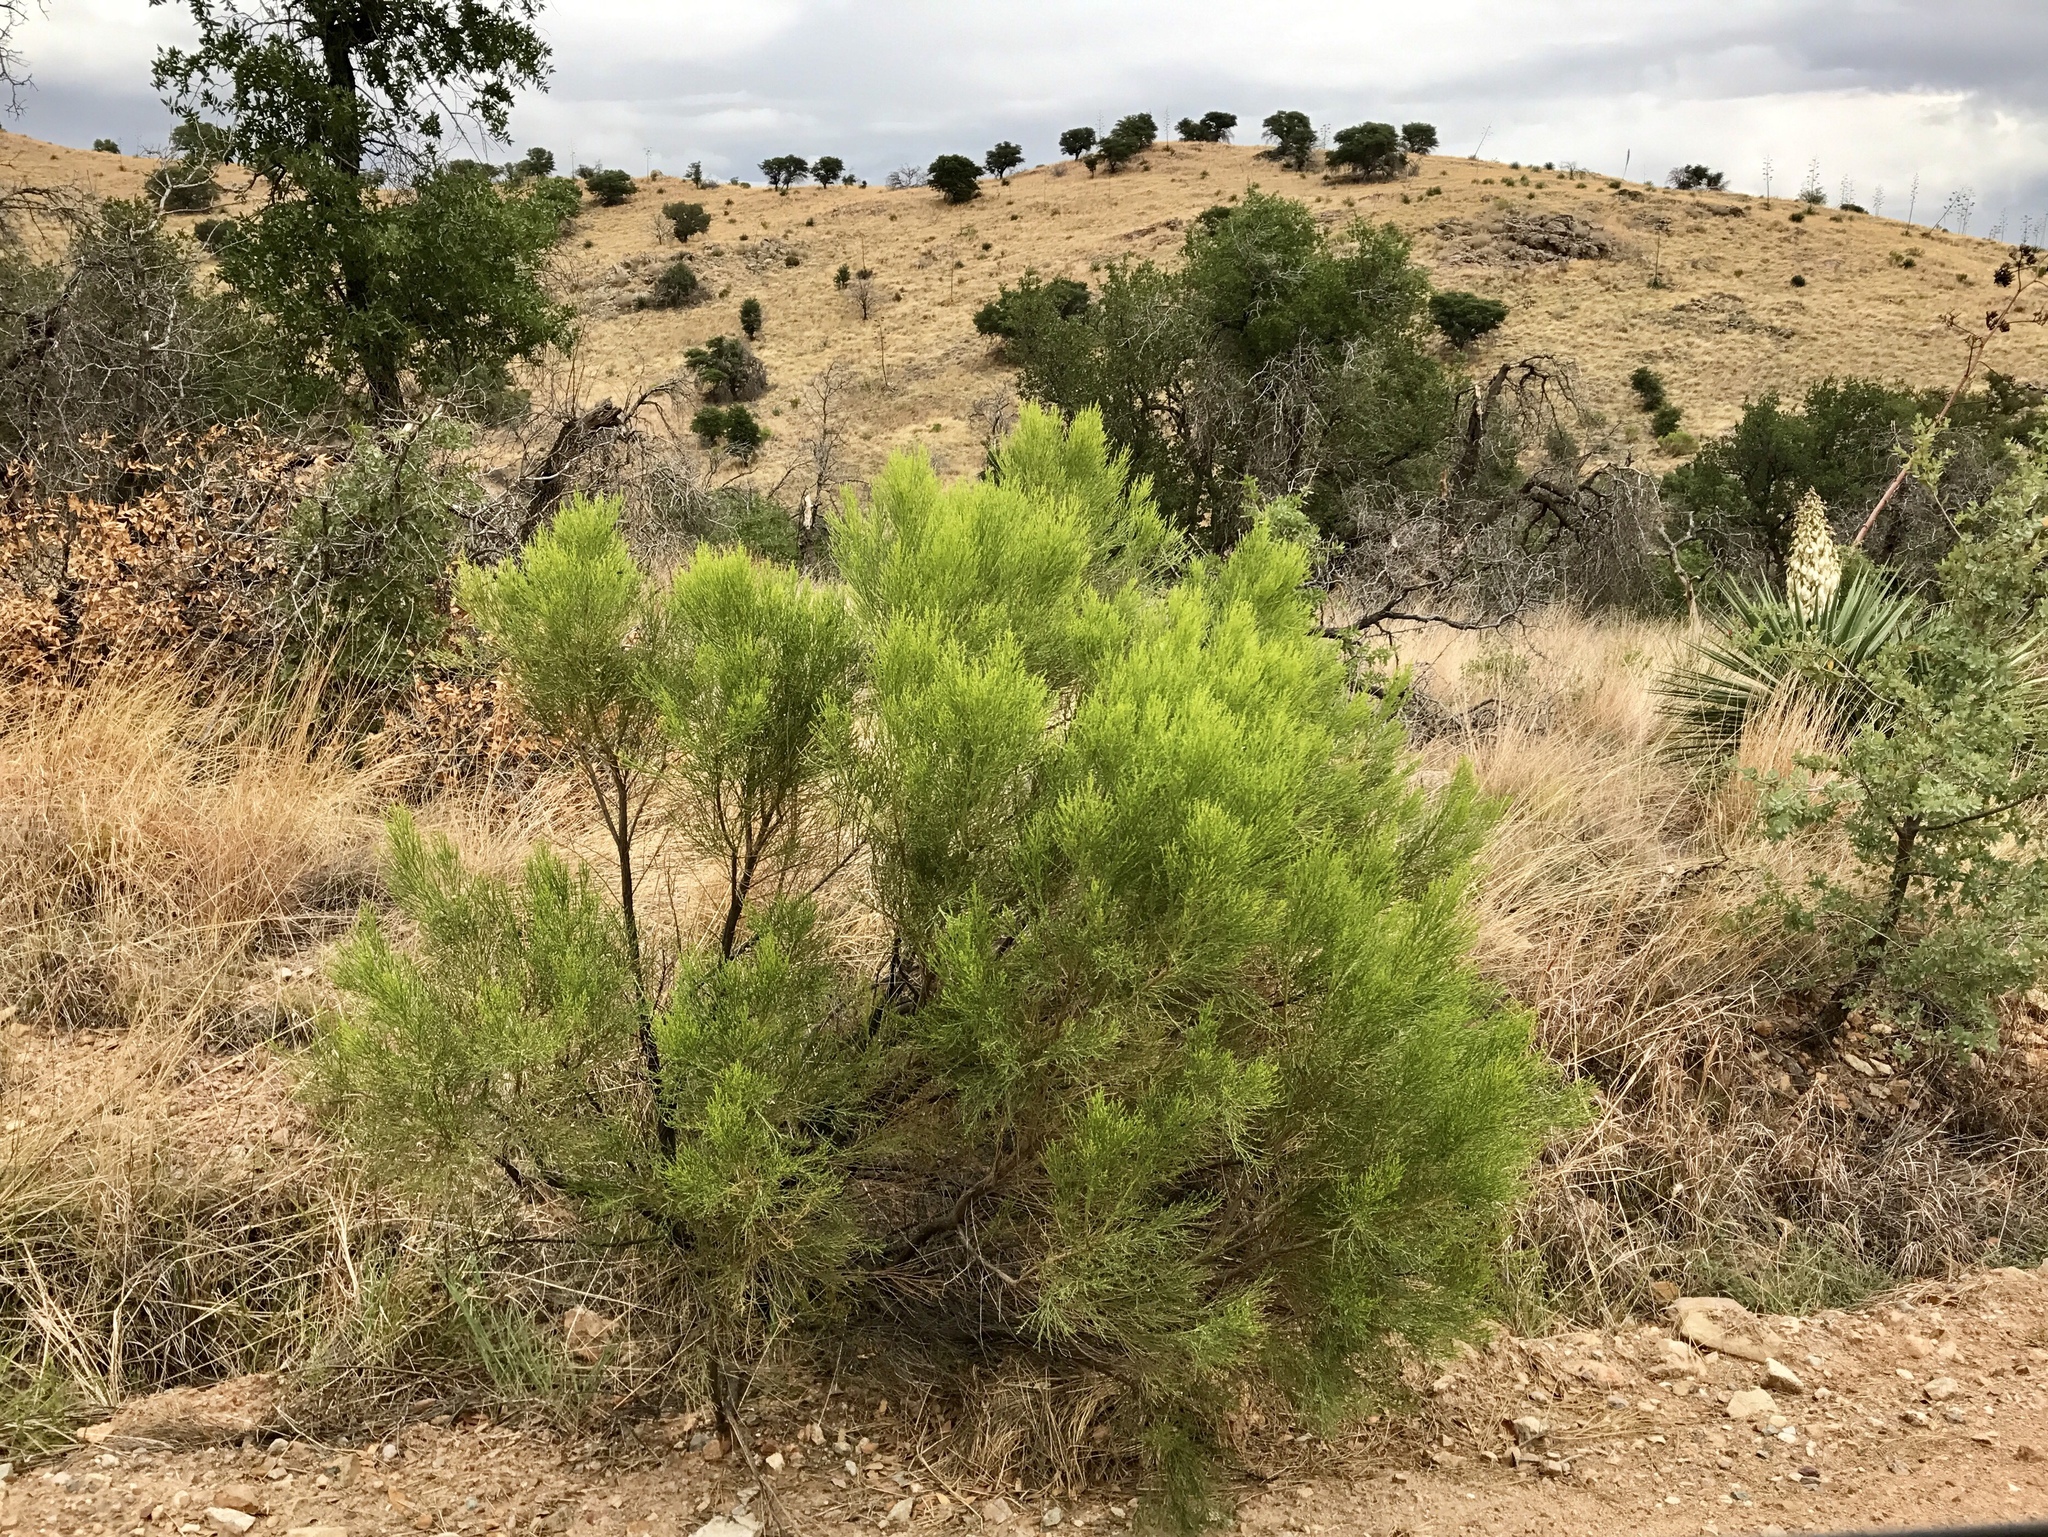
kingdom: Plantae
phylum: Tracheophyta
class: Magnoliopsida
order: Asterales
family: Asteraceae
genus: Baccharis
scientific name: Baccharis sarothroides
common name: Desert-broom
